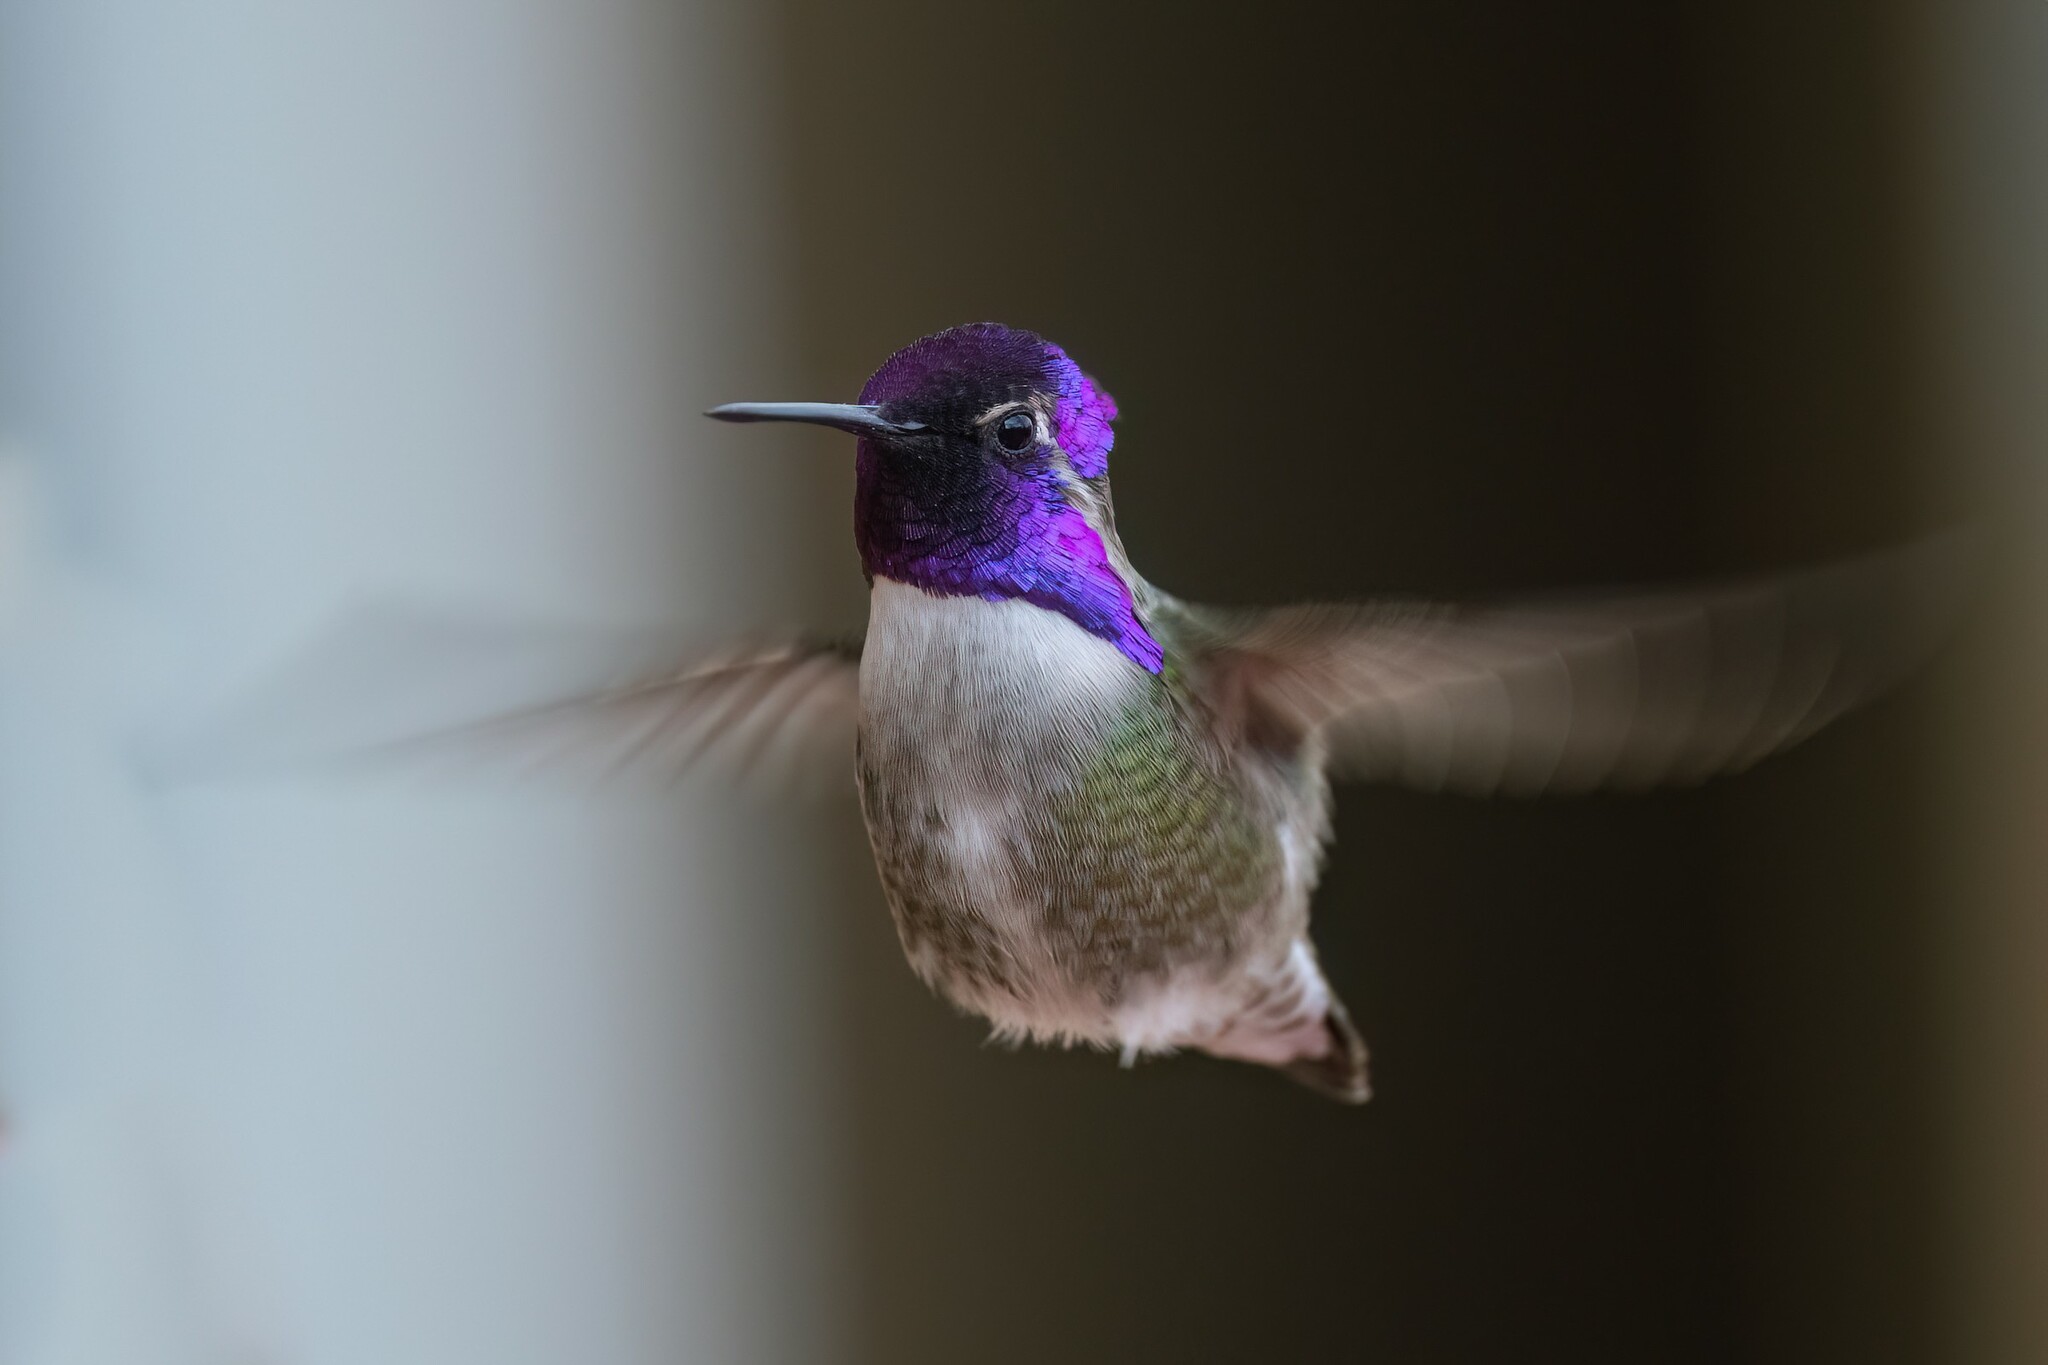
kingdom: Animalia
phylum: Chordata
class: Aves
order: Apodiformes
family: Trochilidae
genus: Calypte
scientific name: Calypte costae
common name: Costa's hummingbird
